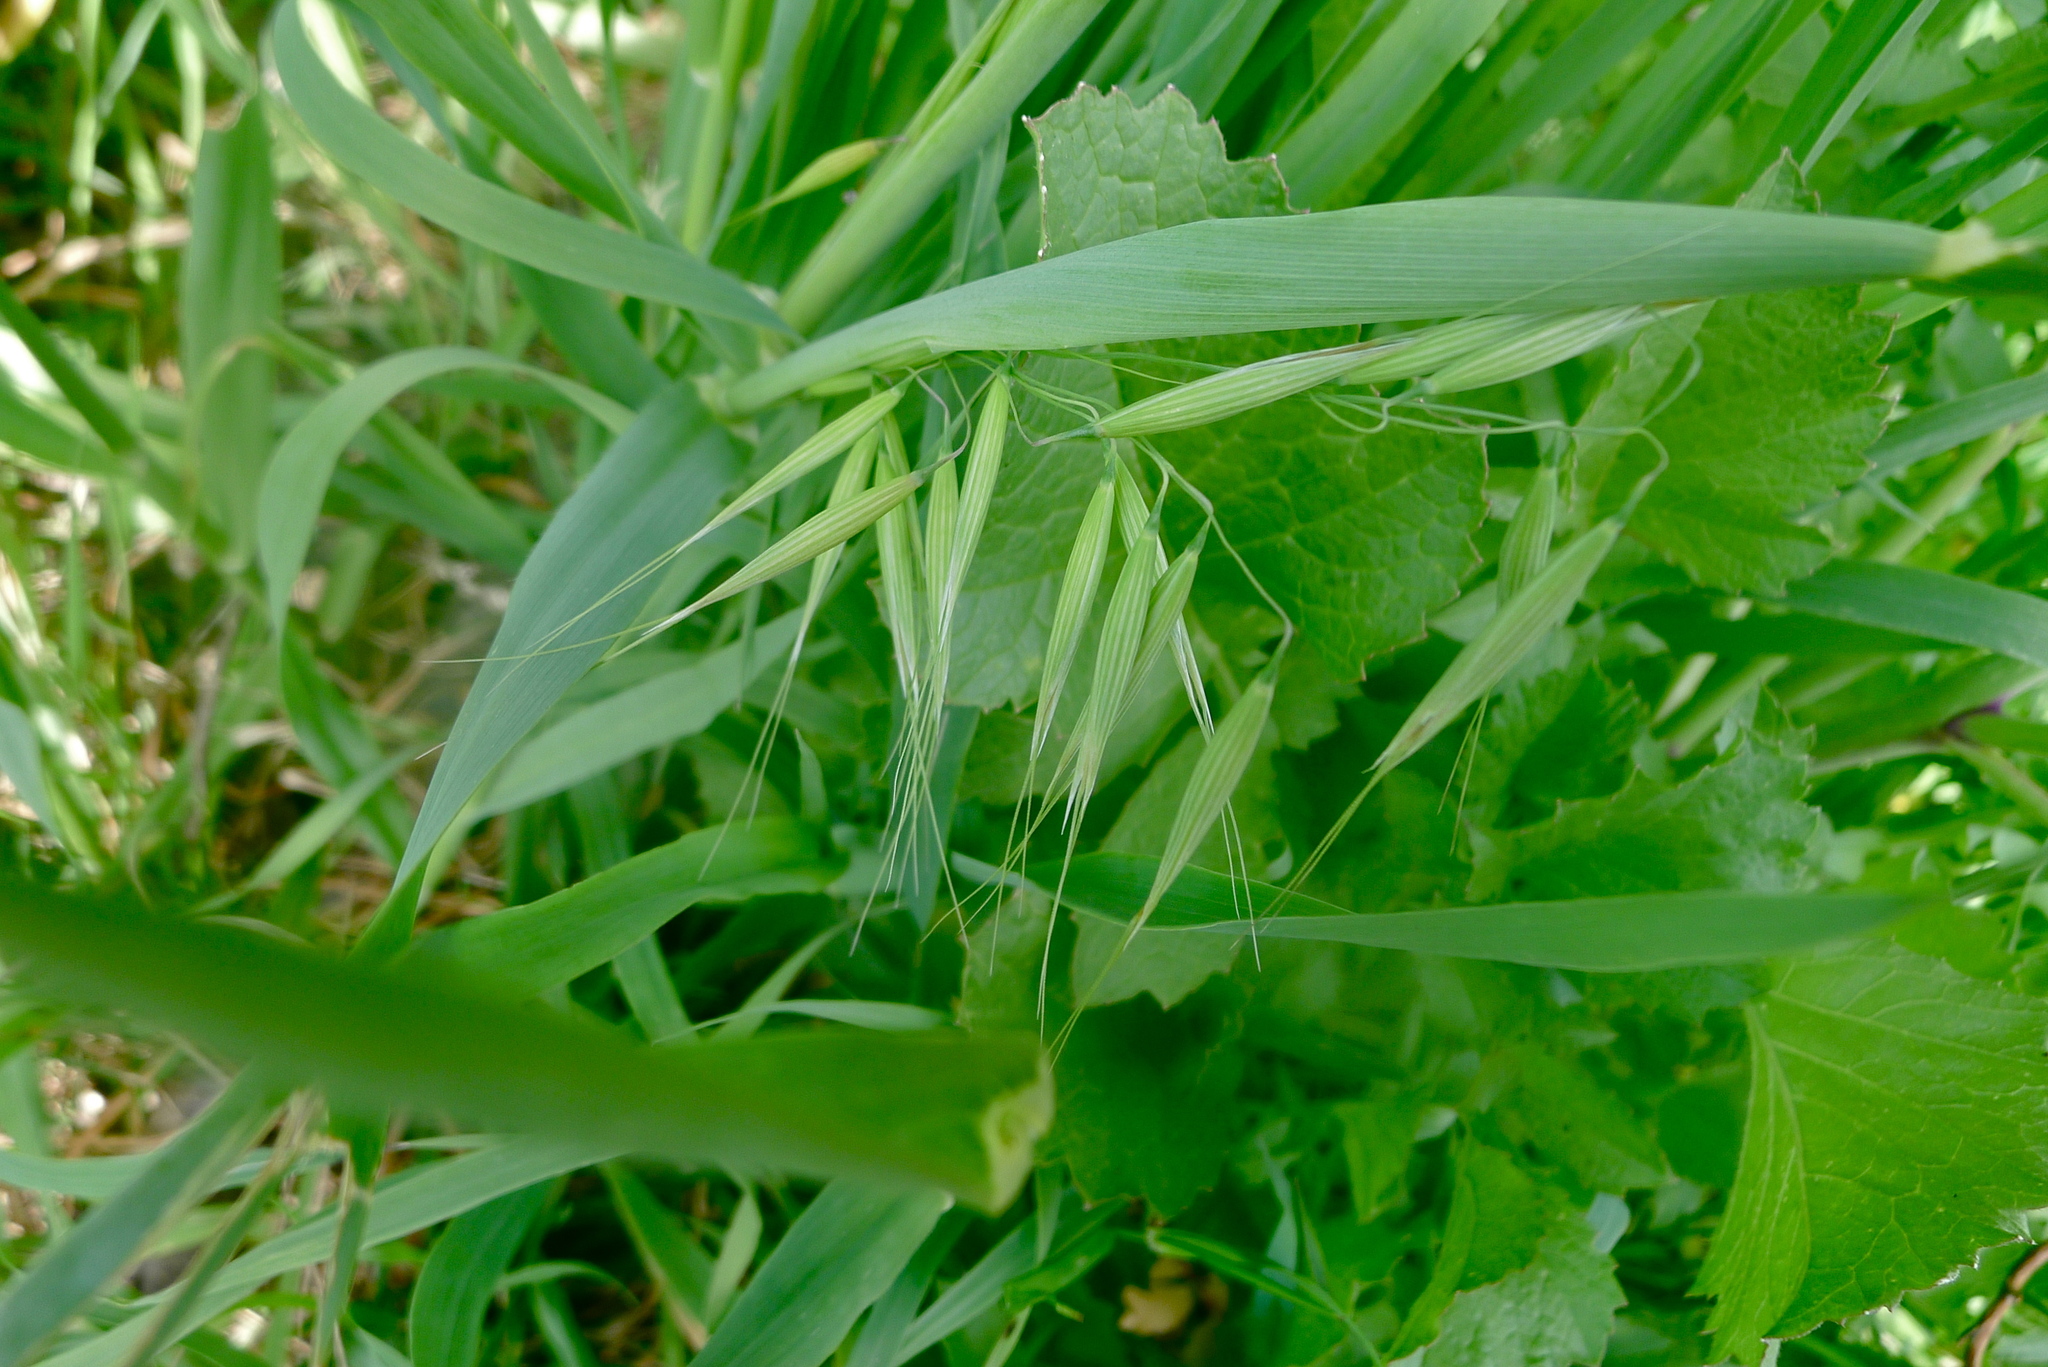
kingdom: Plantae
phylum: Tracheophyta
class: Liliopsida
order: Poales
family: Poaceae
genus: Avena
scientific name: Avena fatua
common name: Wild oat
